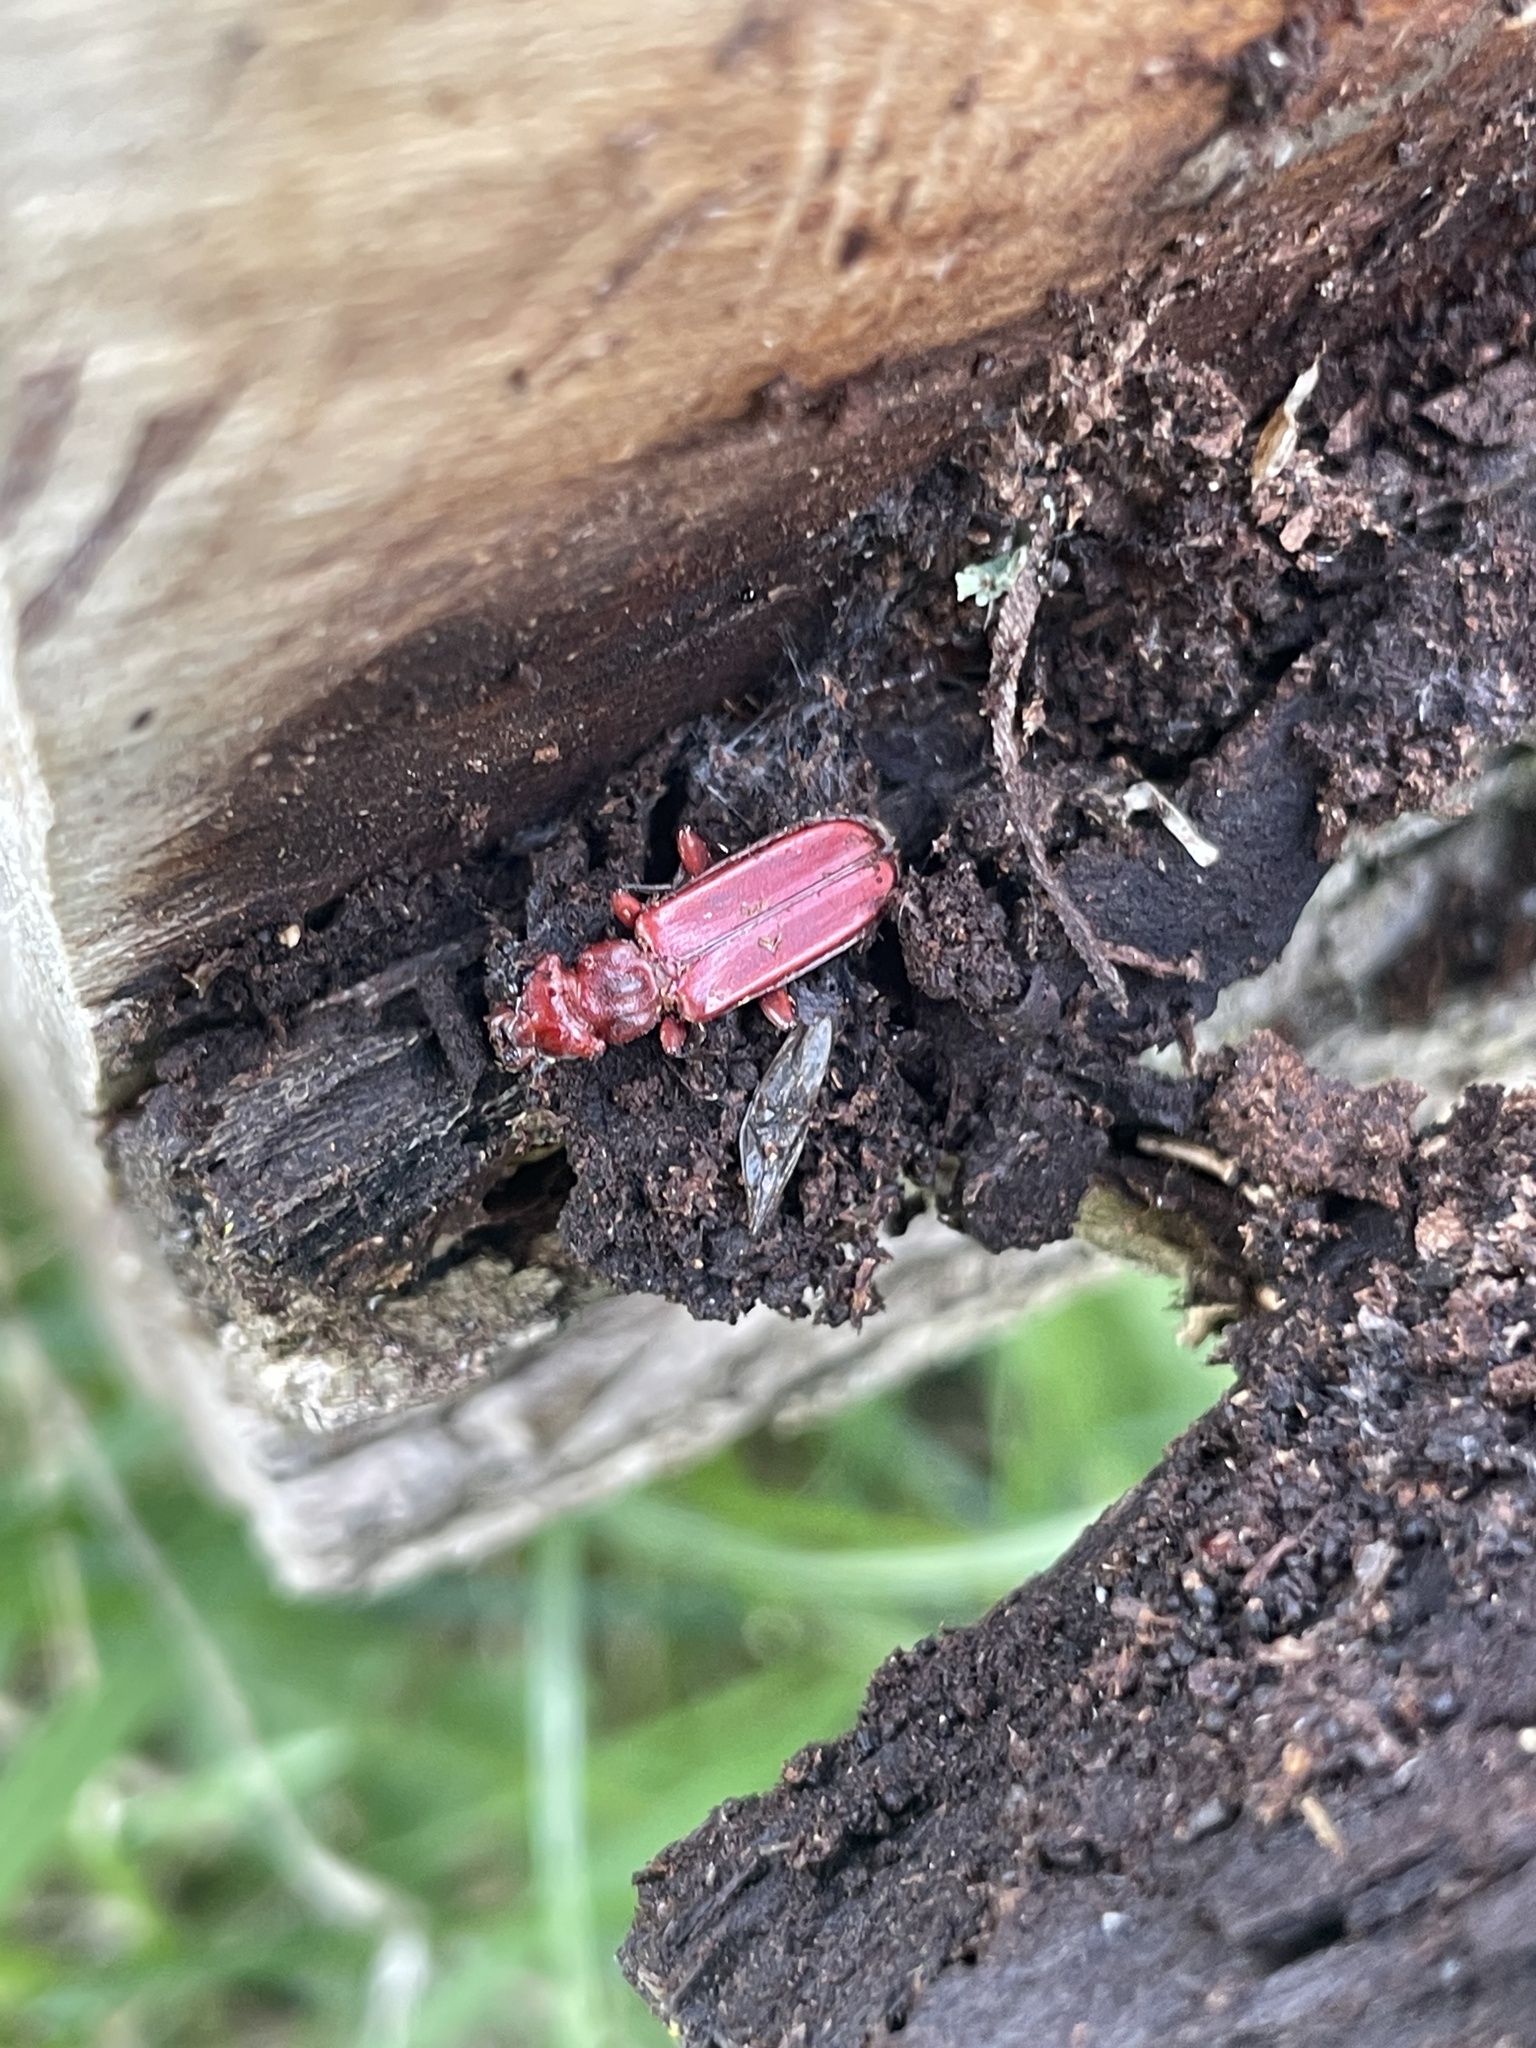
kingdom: Animalia
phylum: Arthropoda
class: Insecta
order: Coleoptera
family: Cucujidae
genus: Cucujus
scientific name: Cucujus clavipes
